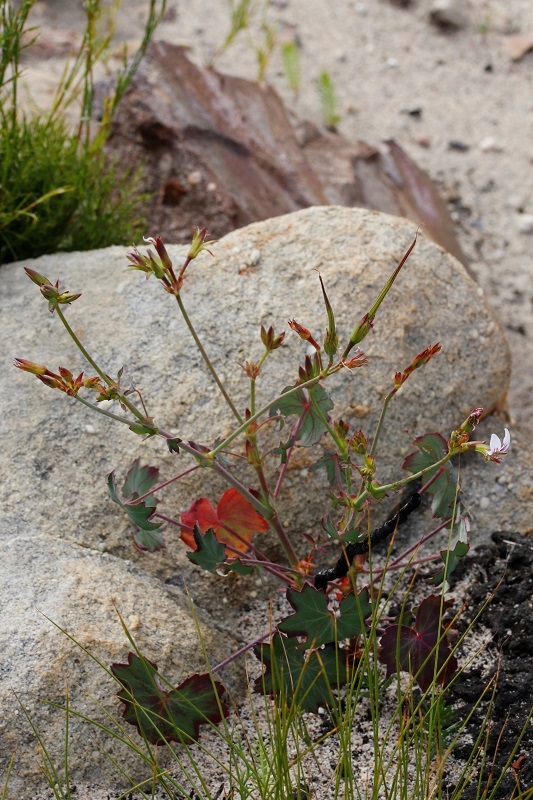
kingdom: Plantae
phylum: Tracheophyta
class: Magnoliopsida
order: Geraniales
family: Geraniaceae
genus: Pelargonium
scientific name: Pelargonium tabulare
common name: Table mountain pelargonium
